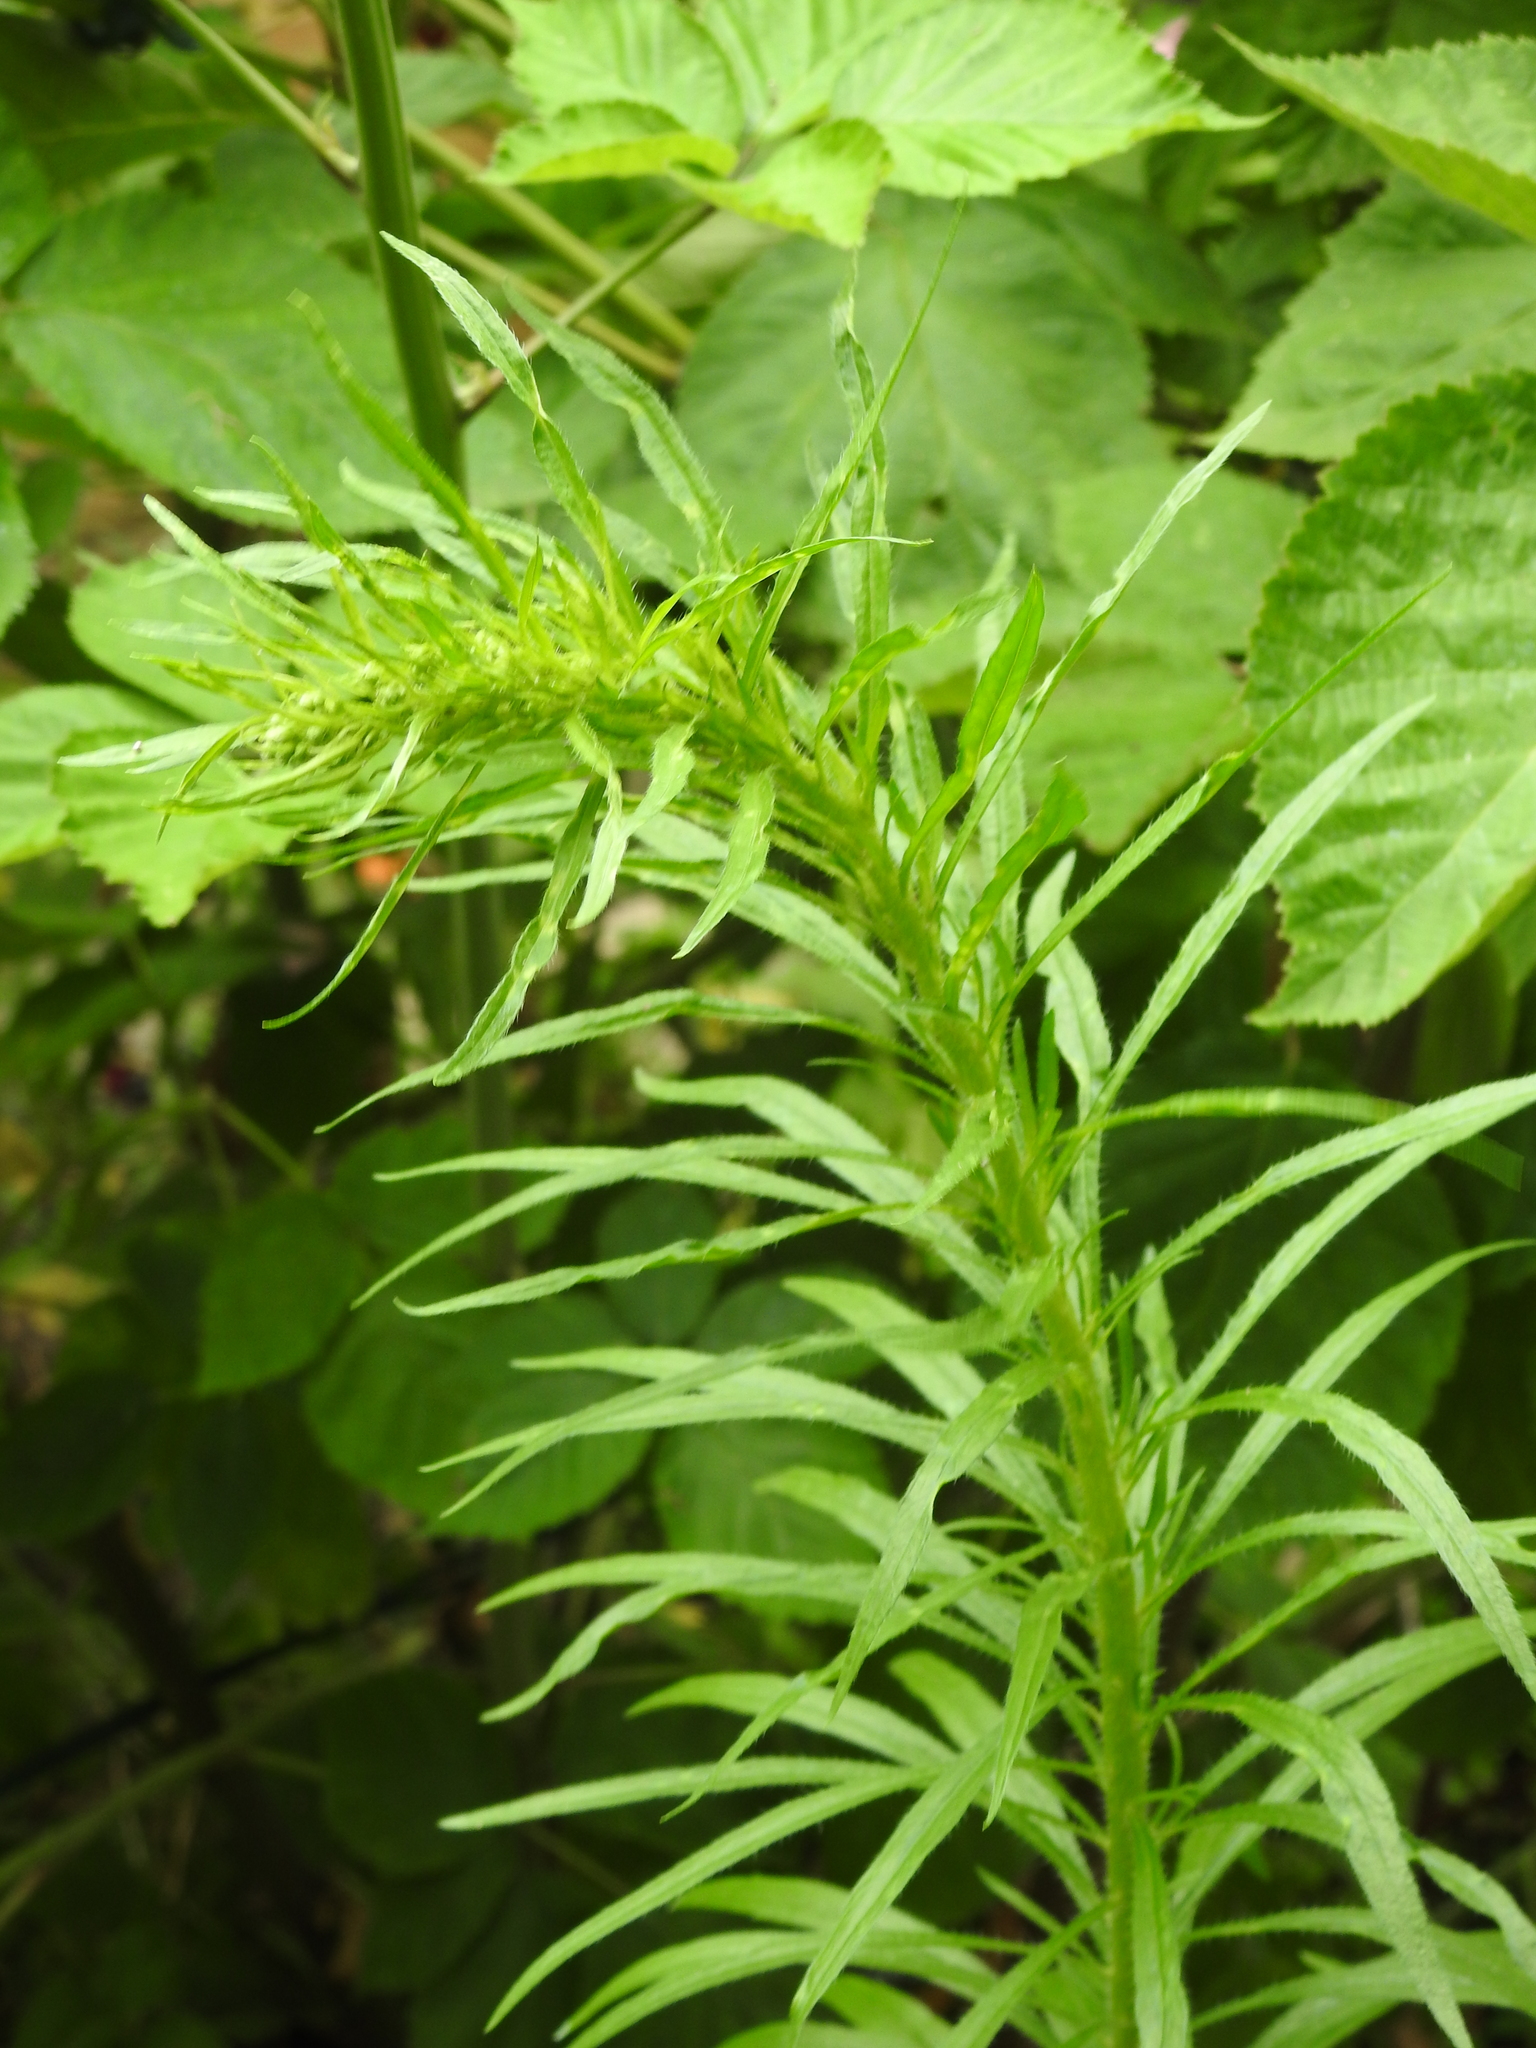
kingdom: Plantae
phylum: Tracheophyta
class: Magnoliopsida
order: Asterales
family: Asteraceae
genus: Erigeron
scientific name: Erigeron canadensis
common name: Canadian fleabane
